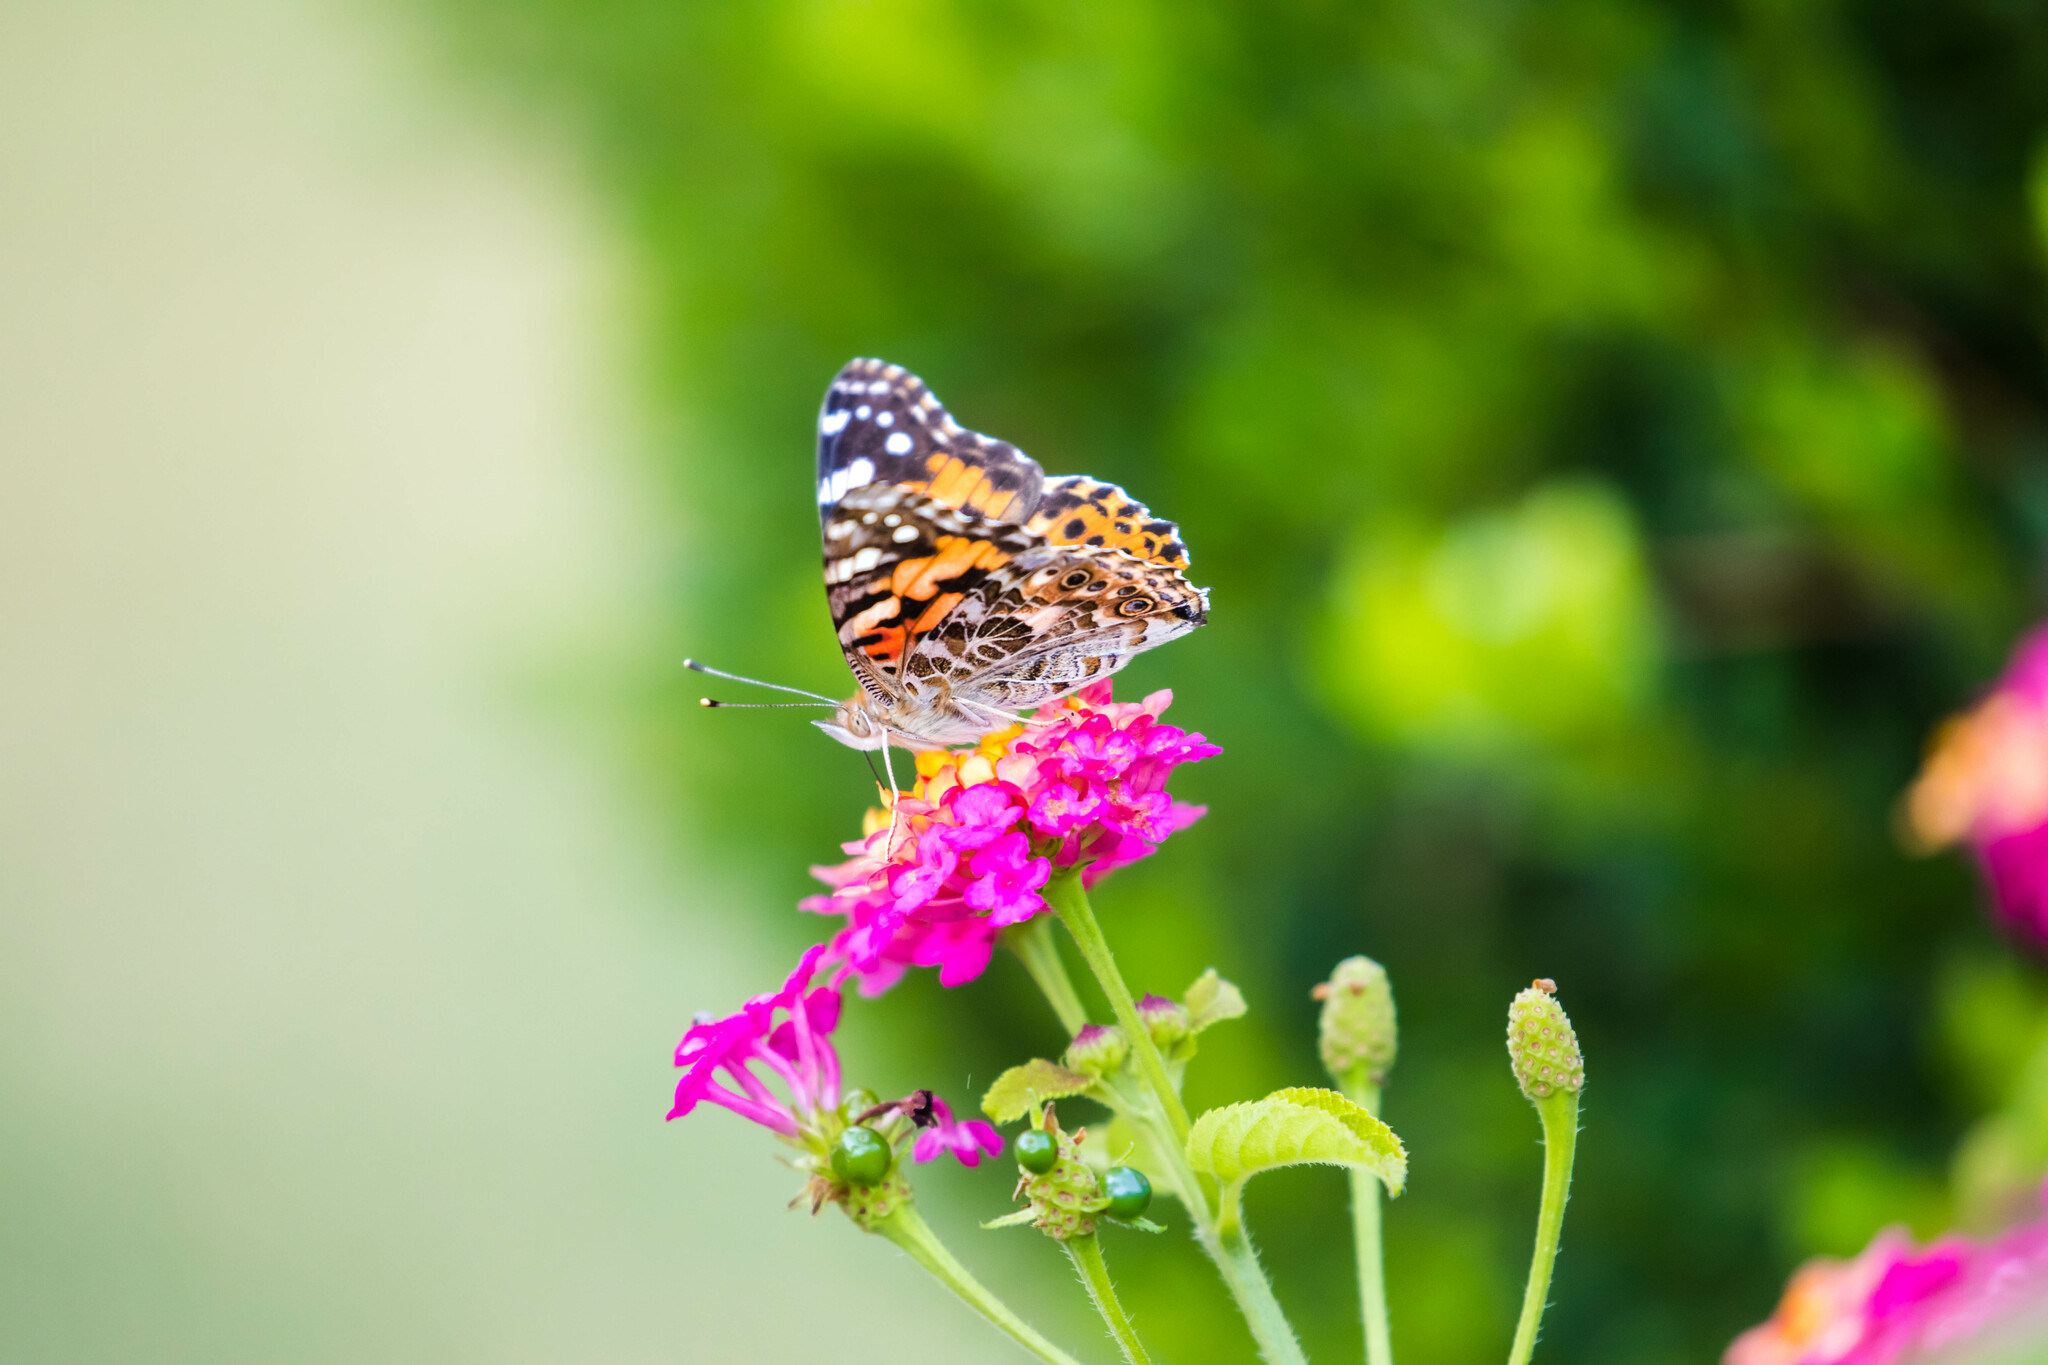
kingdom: Animalia
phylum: Arthropoda
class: Insecta
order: Lepidoptera
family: Nymphalidae
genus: Vanessa
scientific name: Vanessa cardui
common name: Painted lady
